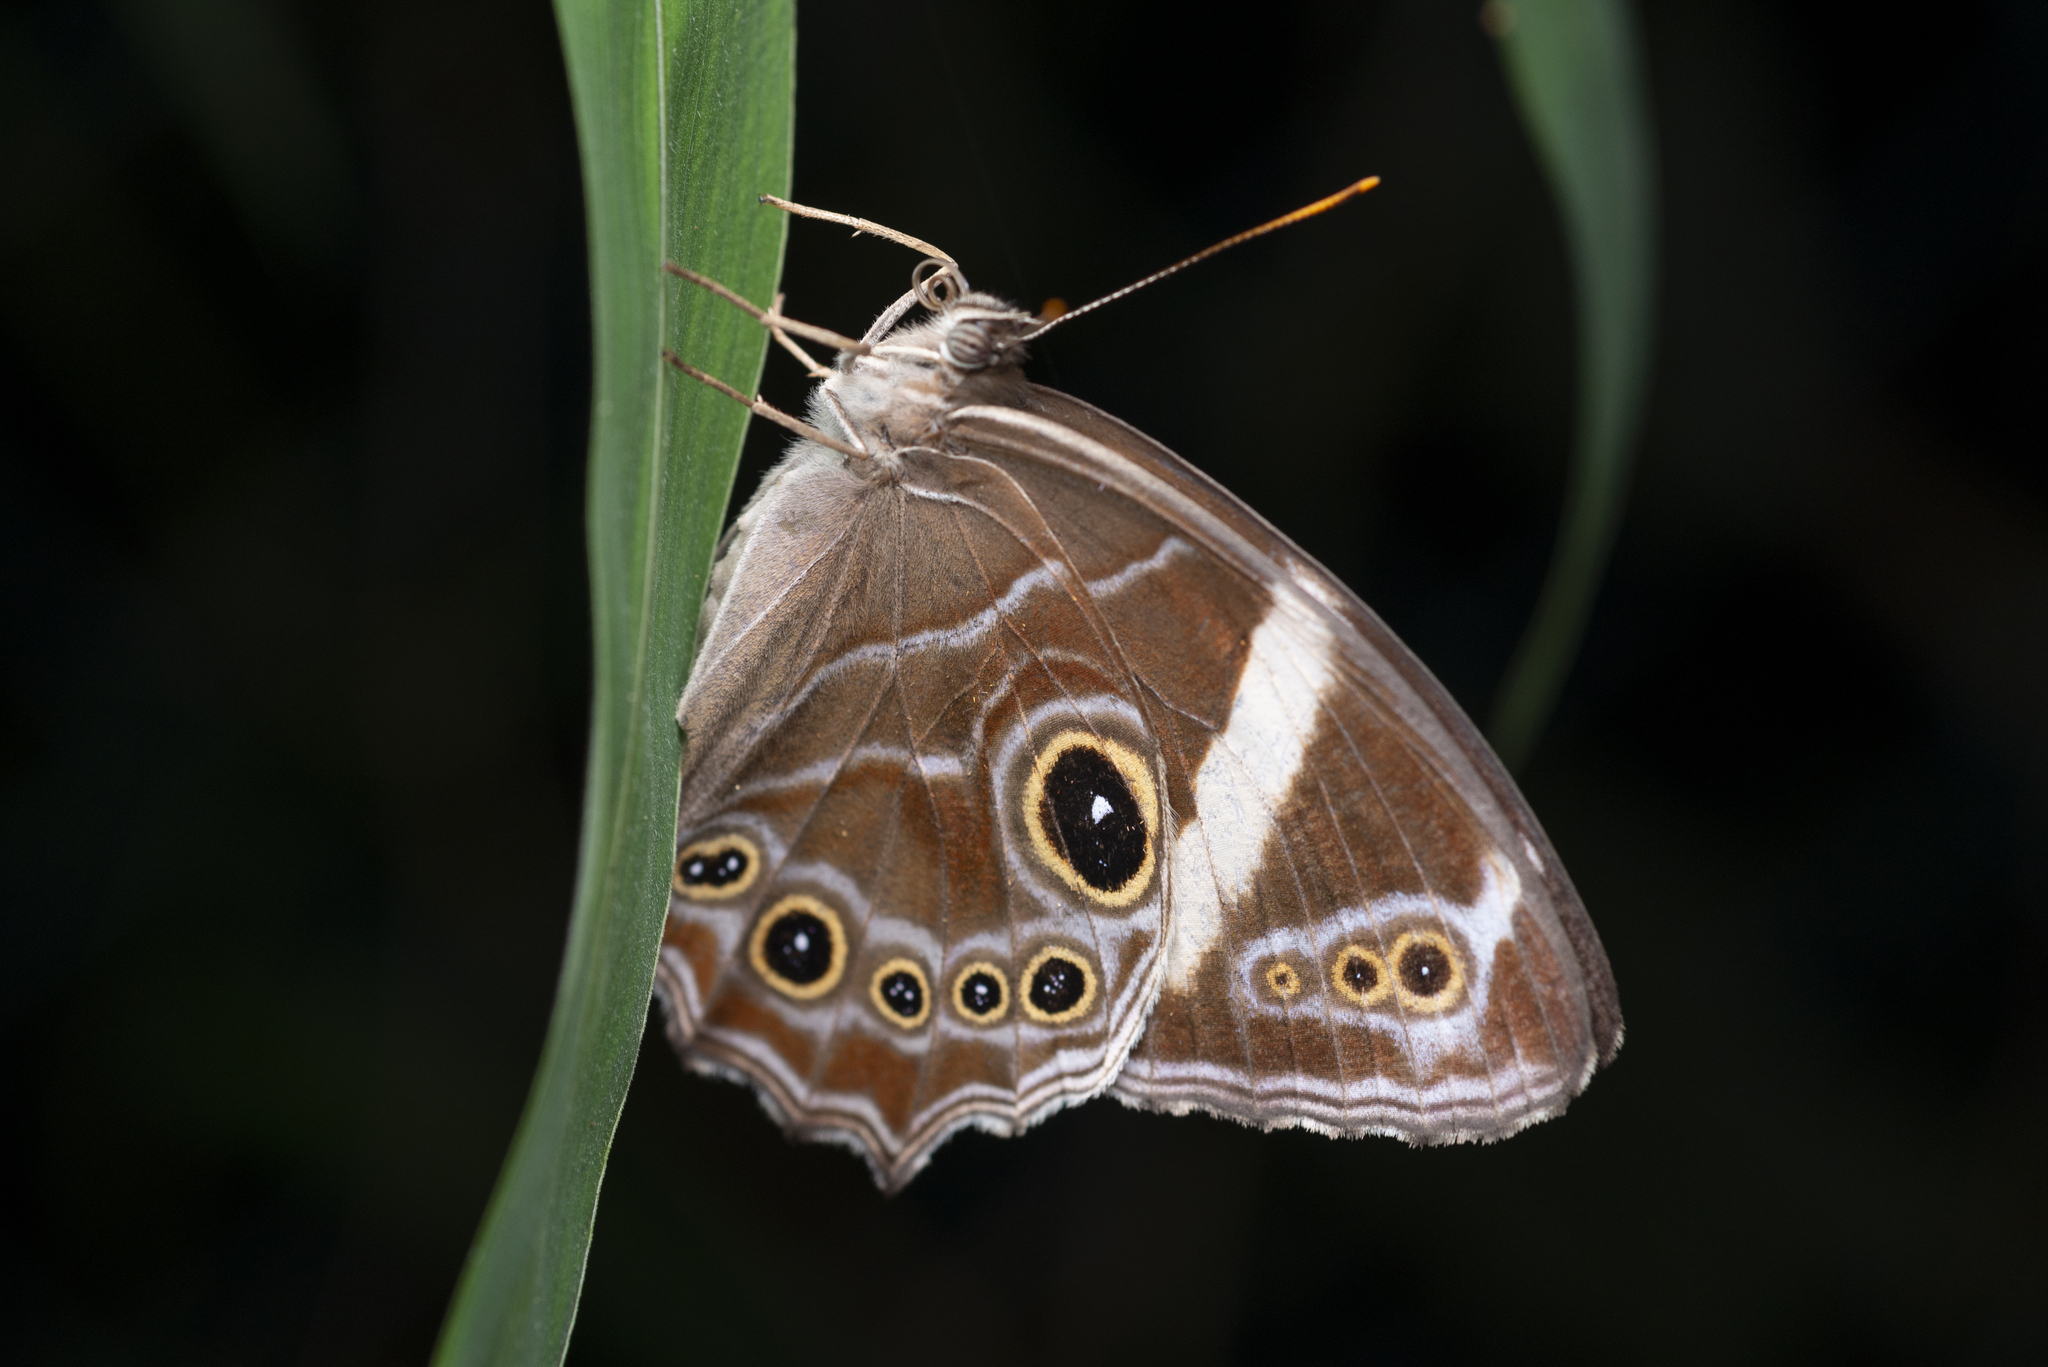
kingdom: Animalia
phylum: Arthropoda
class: Insecta
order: Lepidoptera
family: Nymphalidae
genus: Lethe
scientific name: Lethe confusa
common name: Banded treebrown
